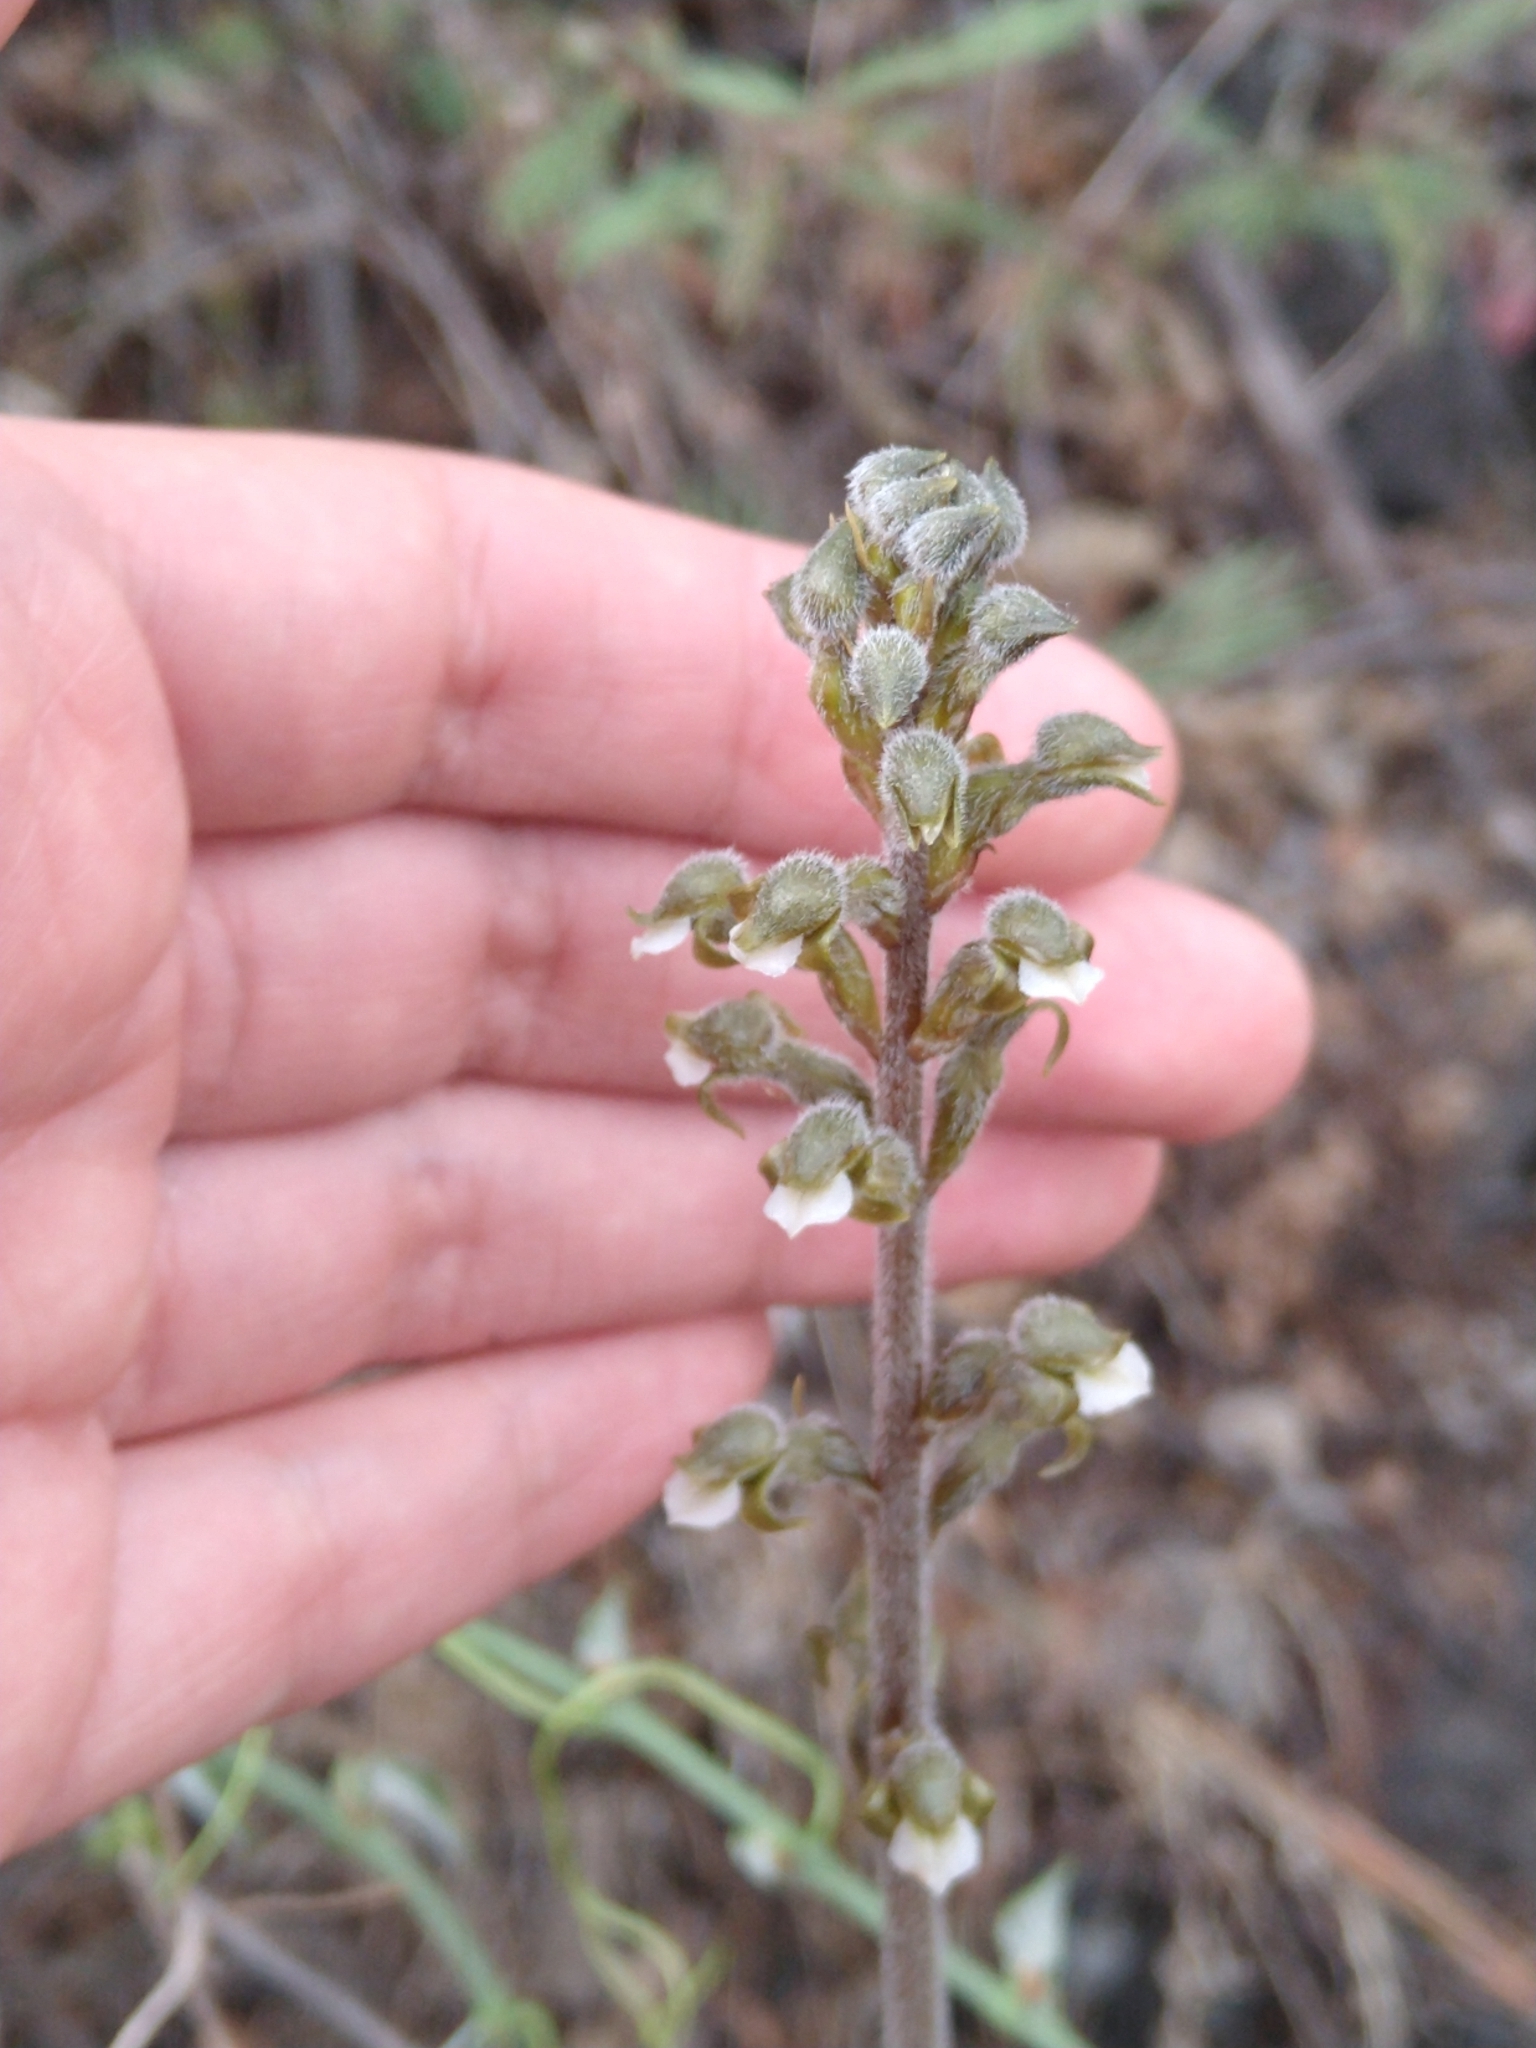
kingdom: Plantae
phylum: Tracheophyta
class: Liliopsida
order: Asparagales
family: Orchidaceae
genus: Sarcoglottis
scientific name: Sarcoglottis schaffneri
